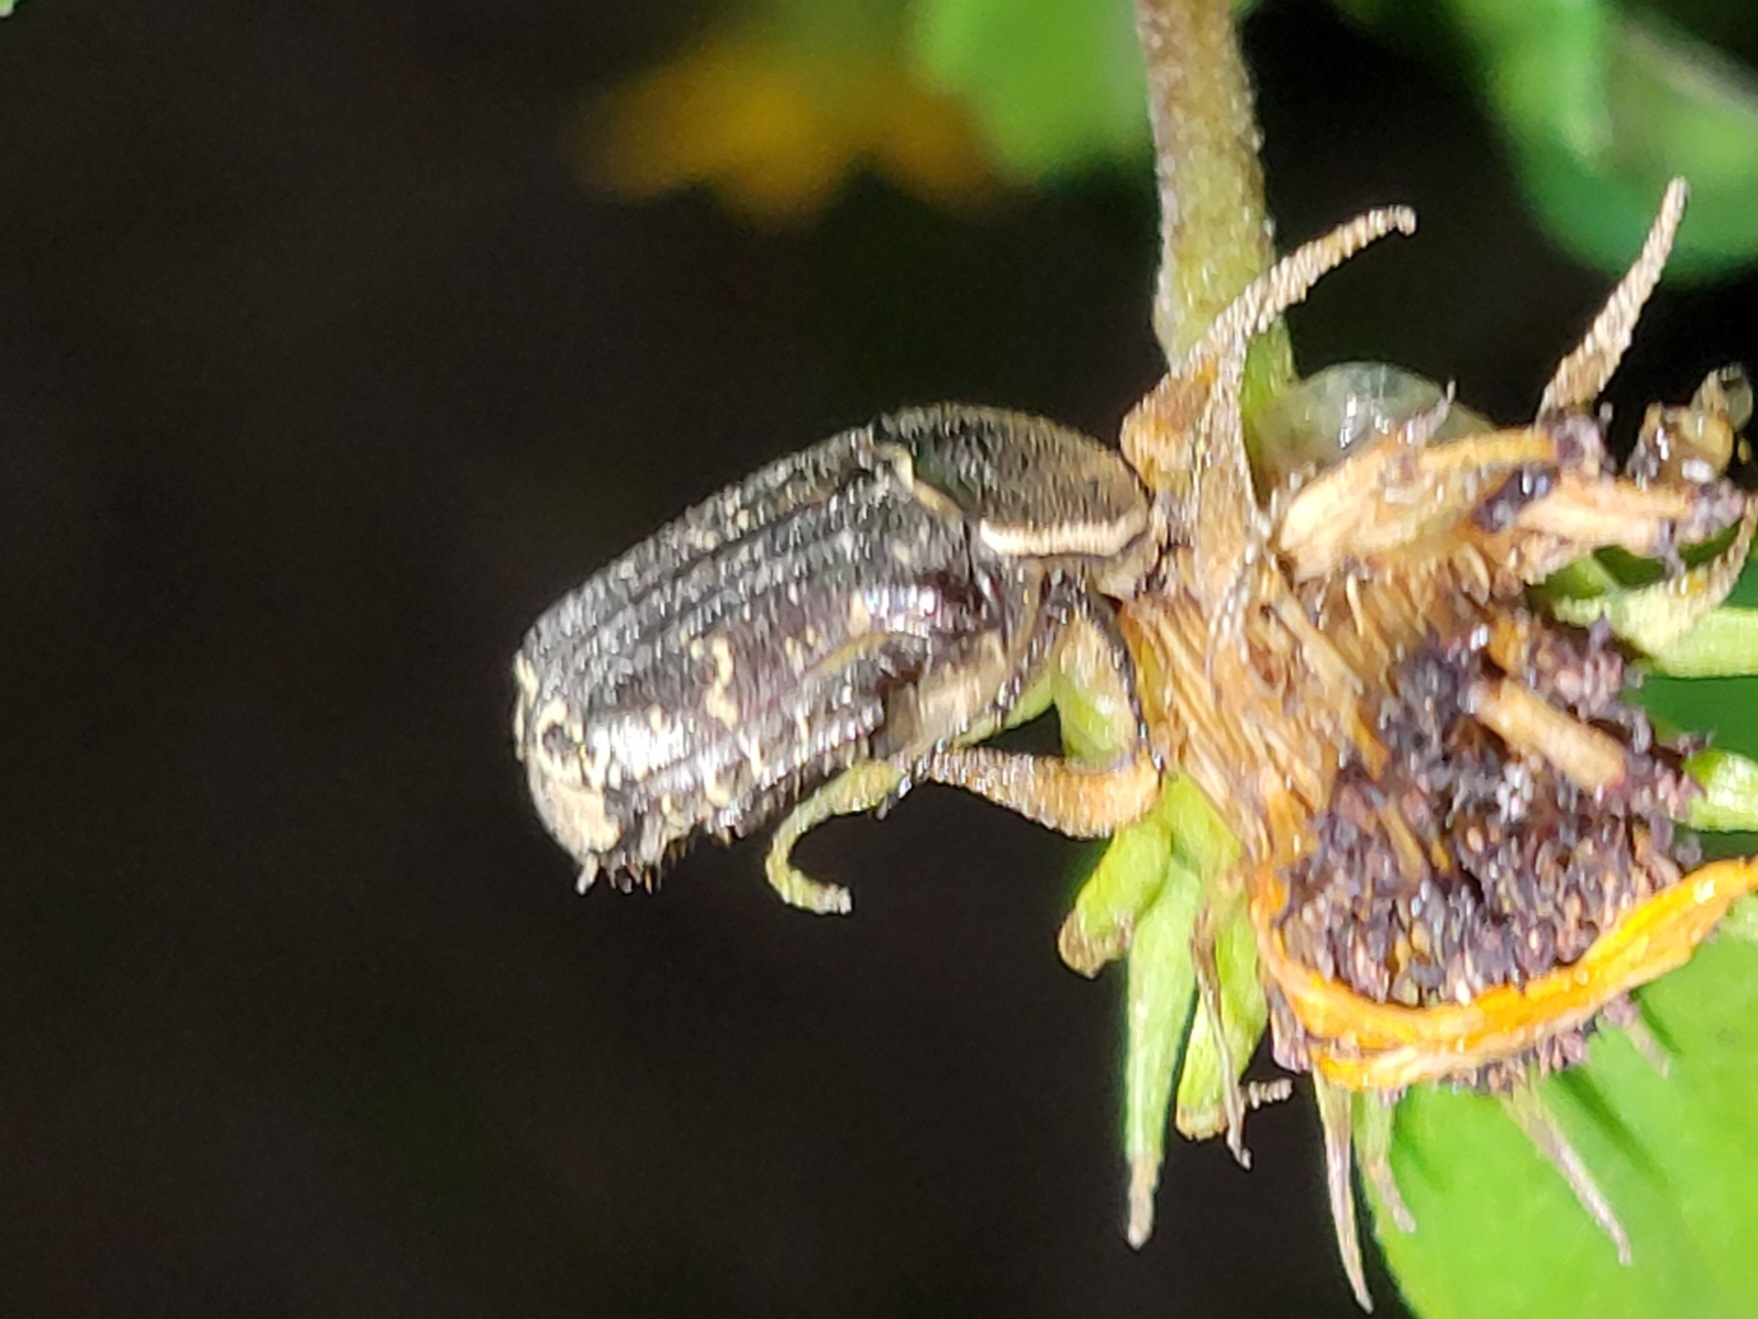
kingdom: Animalia
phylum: Arthropoda
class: Insecta
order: Coleoptera
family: Scarabaeidae
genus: Euphoria
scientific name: Euphoria sepulcralis
